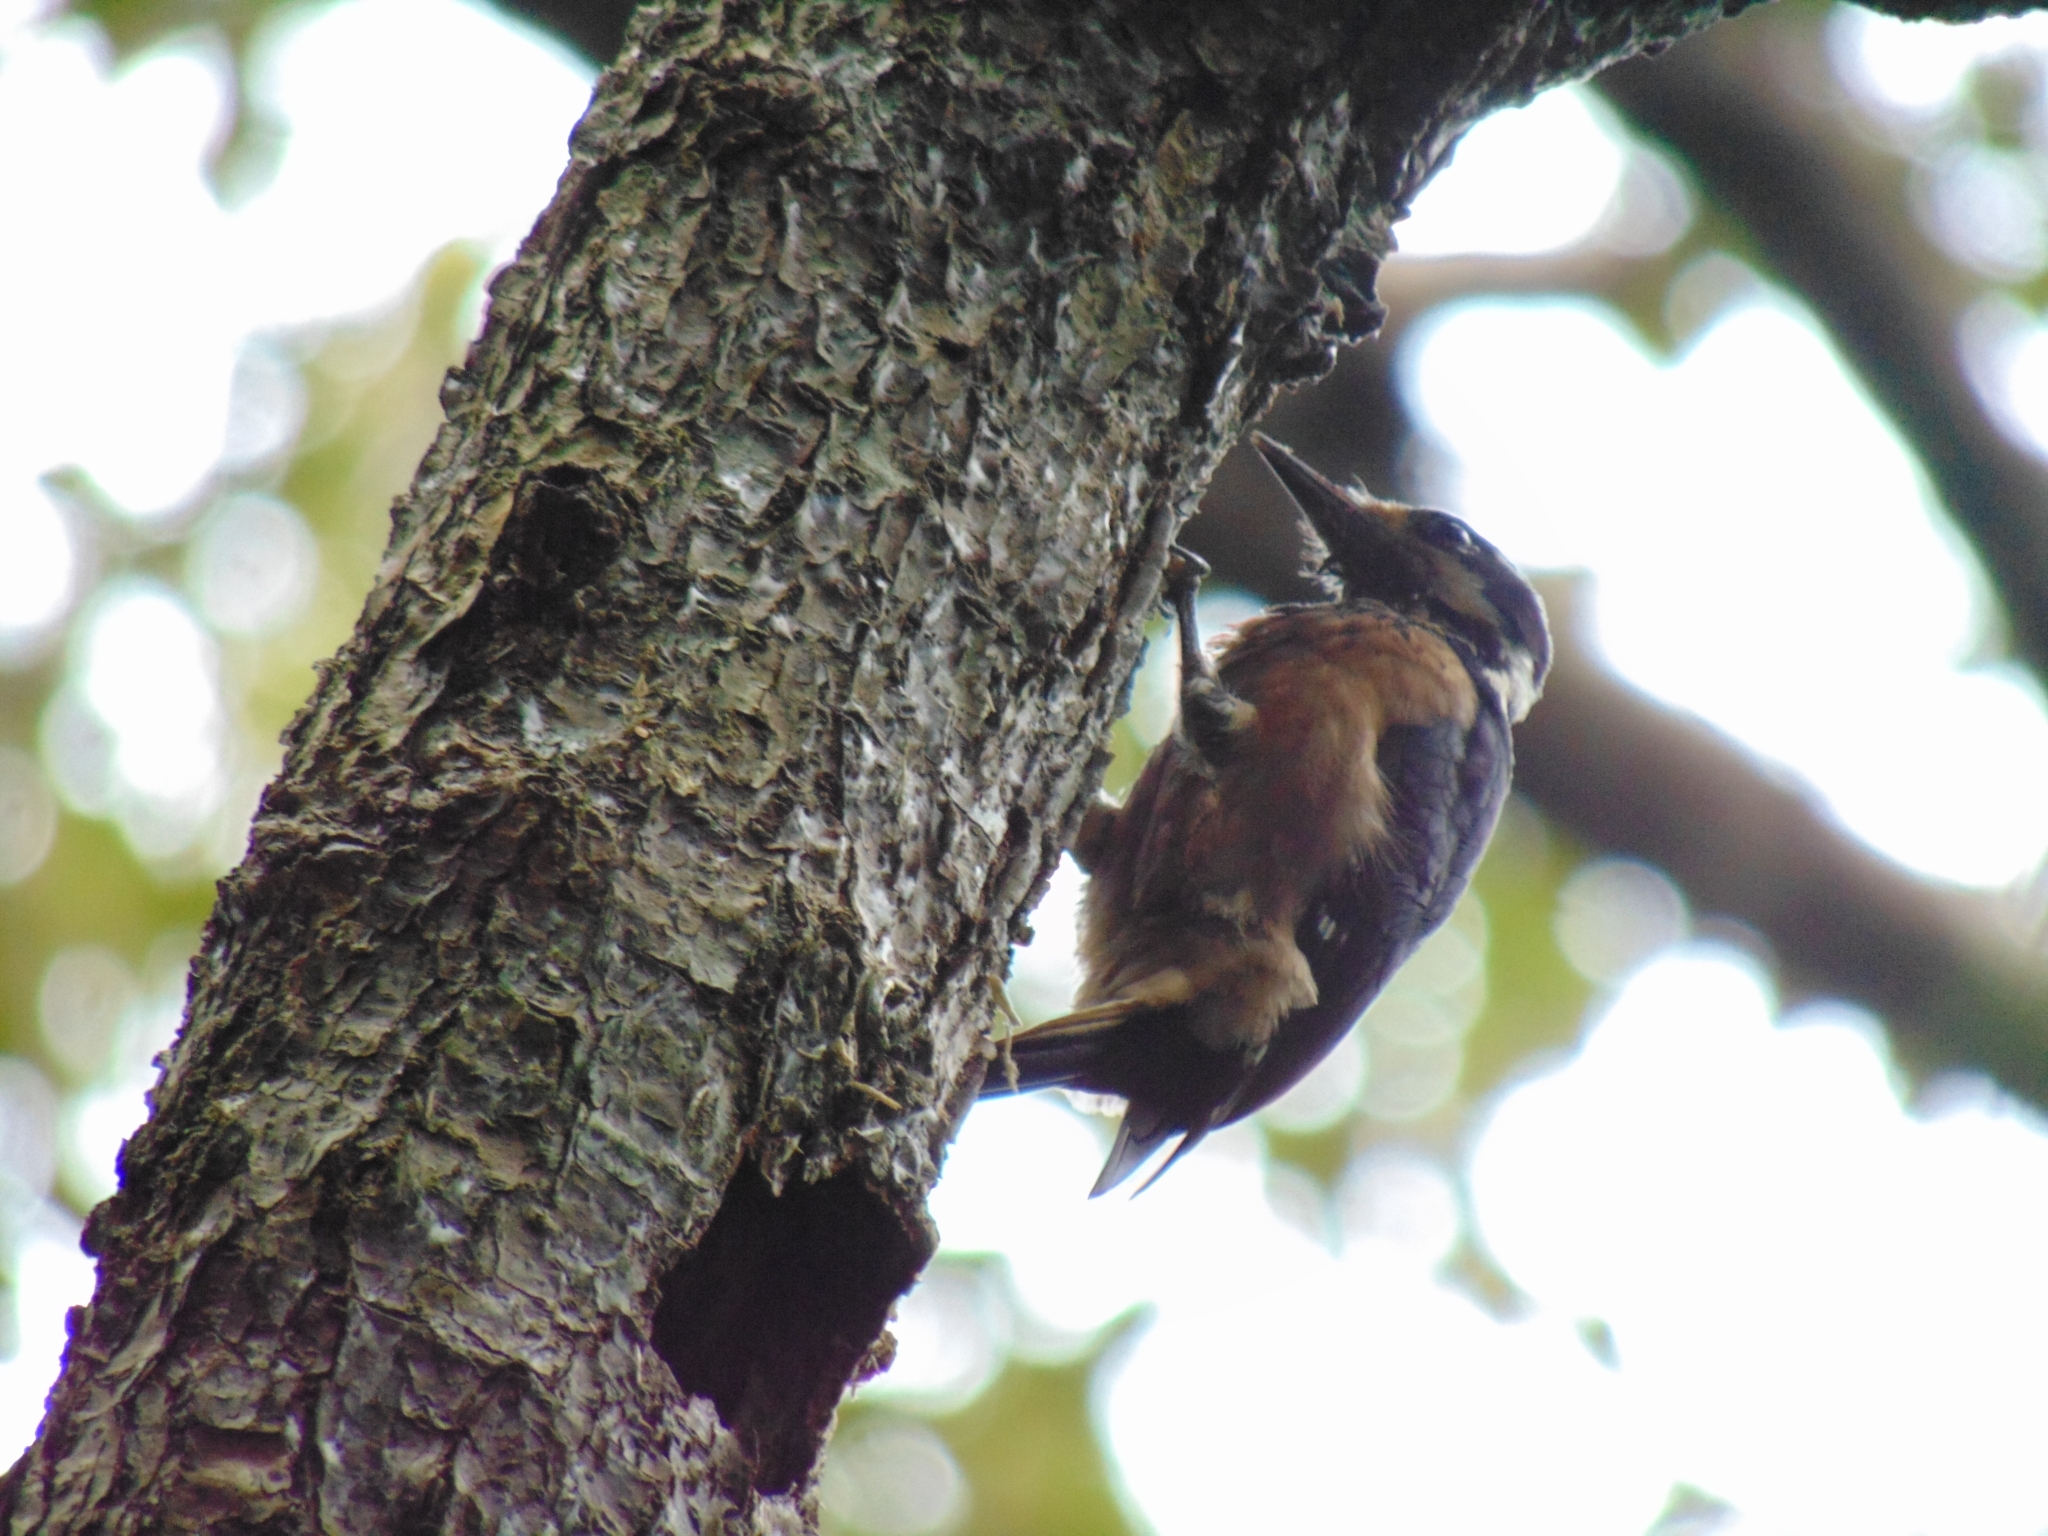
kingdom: Animalia
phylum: Chordata
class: Aves
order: Piciformes
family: Picidae
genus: Leuconotopicus
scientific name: Leuconotopicus villosus
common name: Hairy woodpecker
